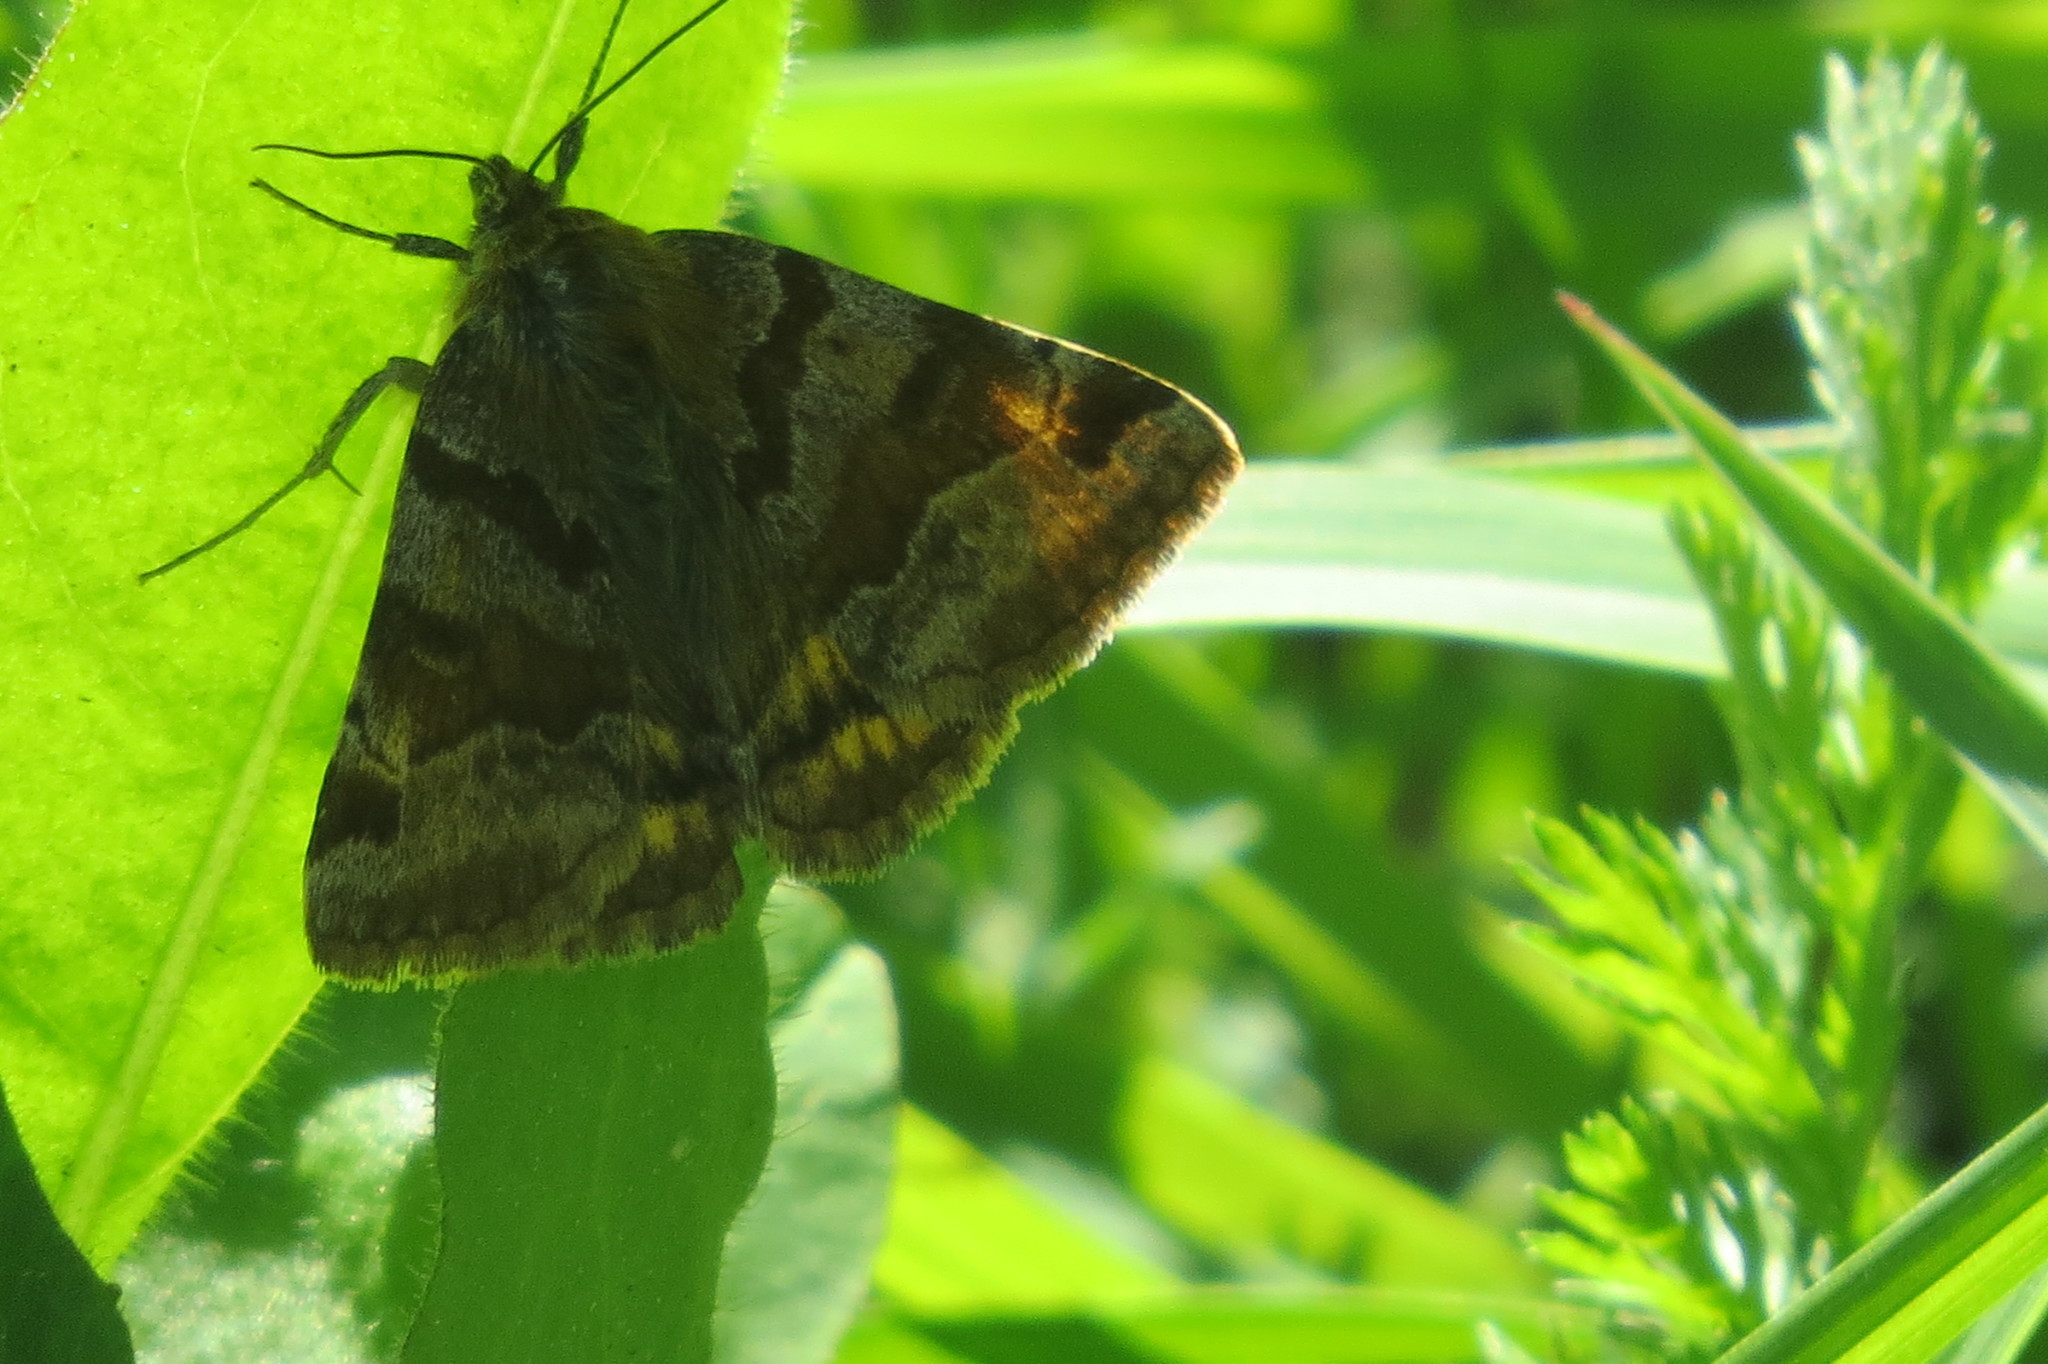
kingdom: Animalia
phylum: Arthropoda
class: Insecta
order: Lepidoptera
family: Erebidae
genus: Euclidia
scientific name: Euclidia glyphica
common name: Burnet companion
